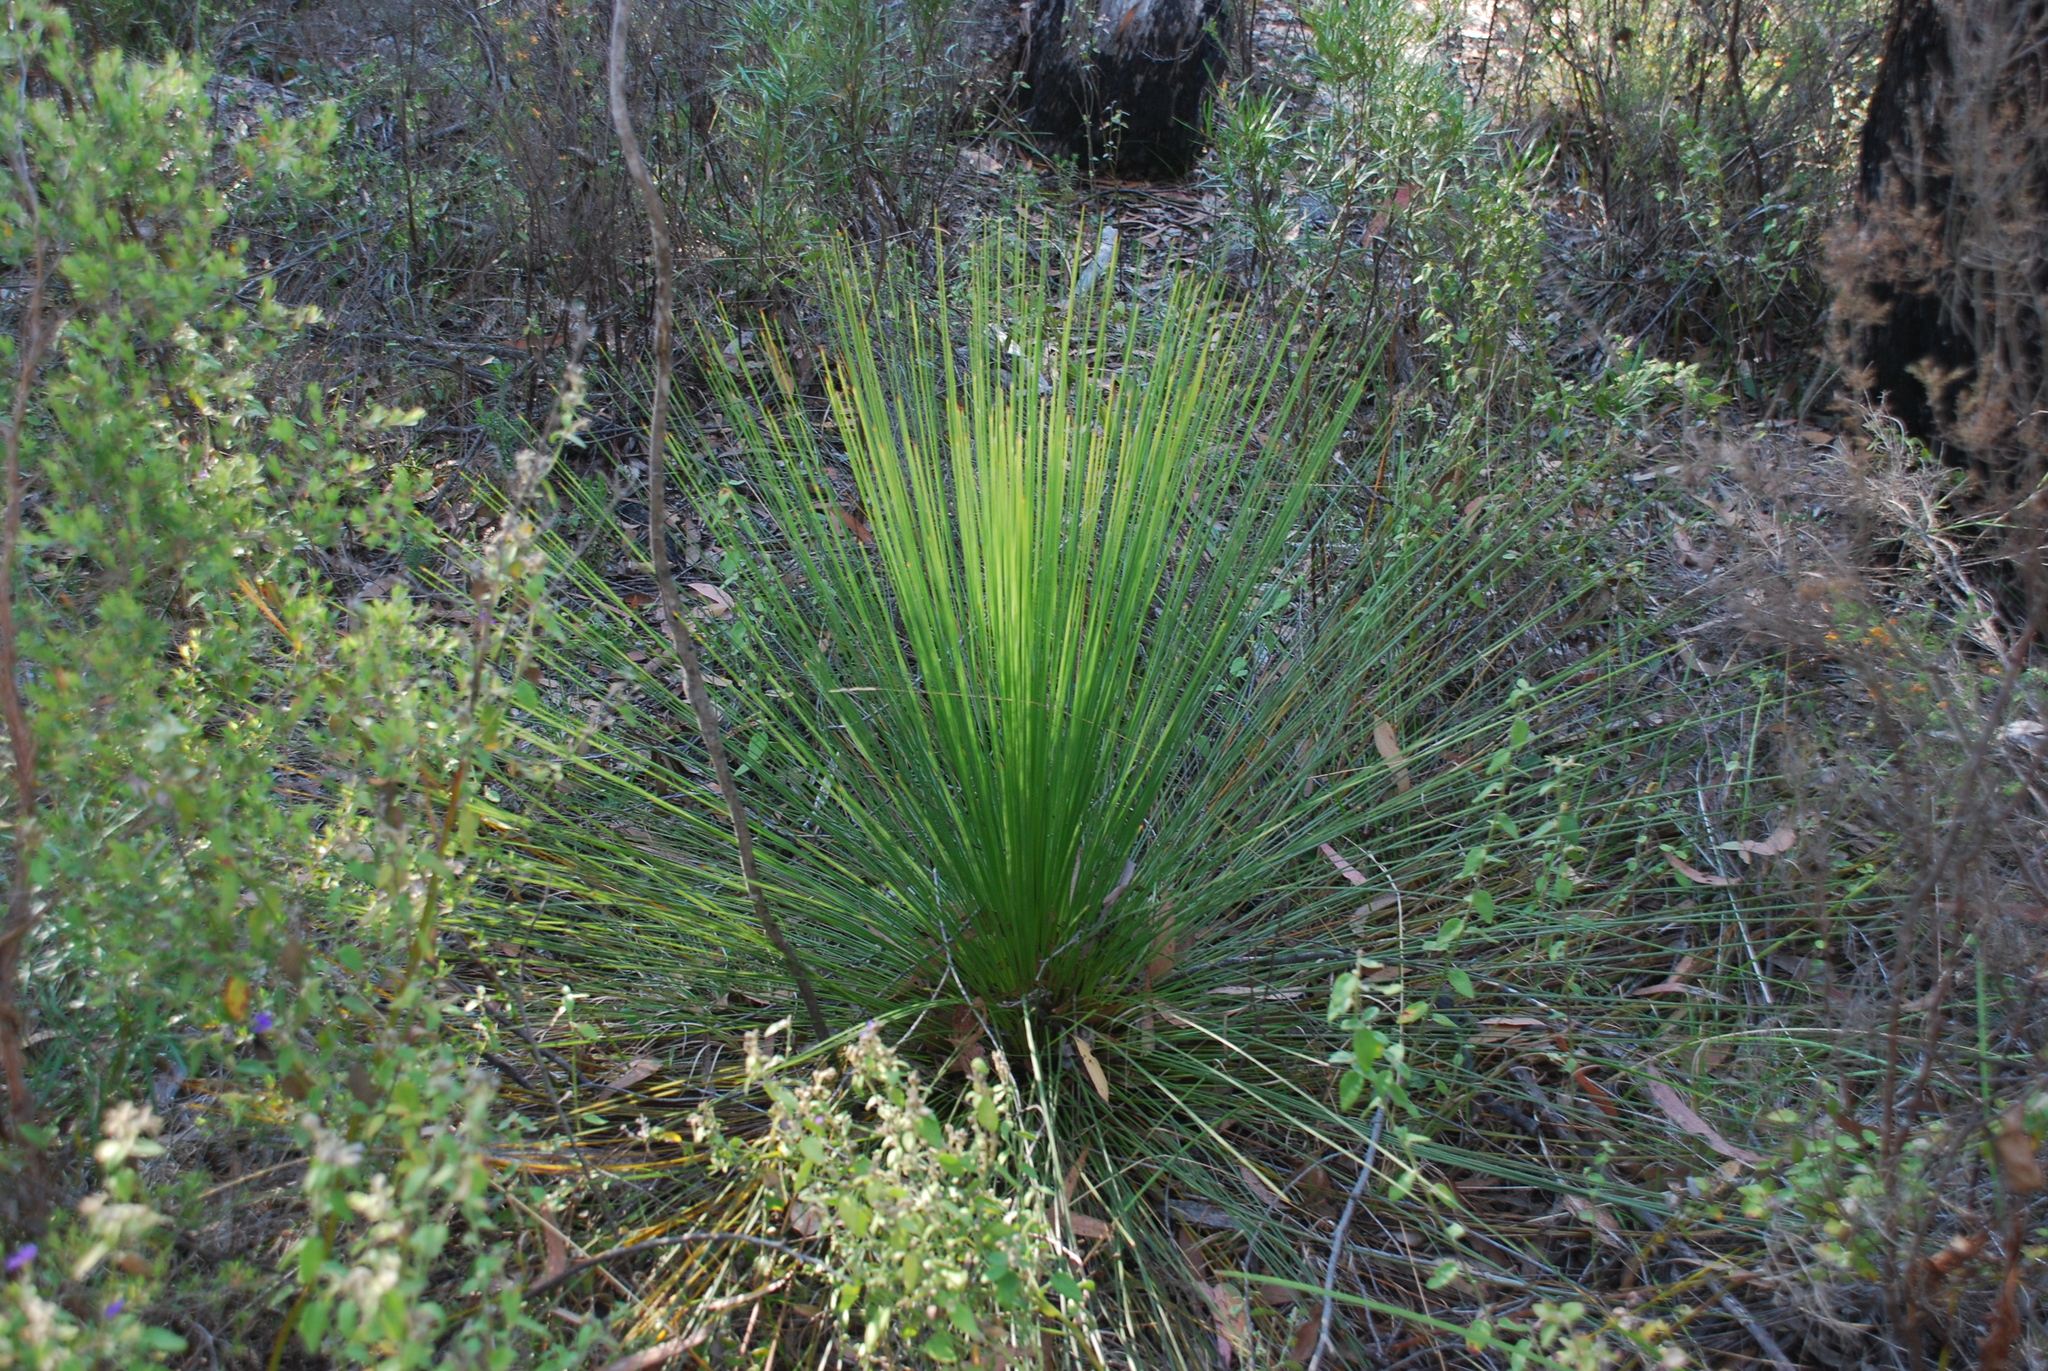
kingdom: Plantae
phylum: Tracheophyta
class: Liliopsida
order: Asparagales
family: Asphodelaceae
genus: Xanthorrhoea
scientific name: Xanthorrhoea johnsonii
